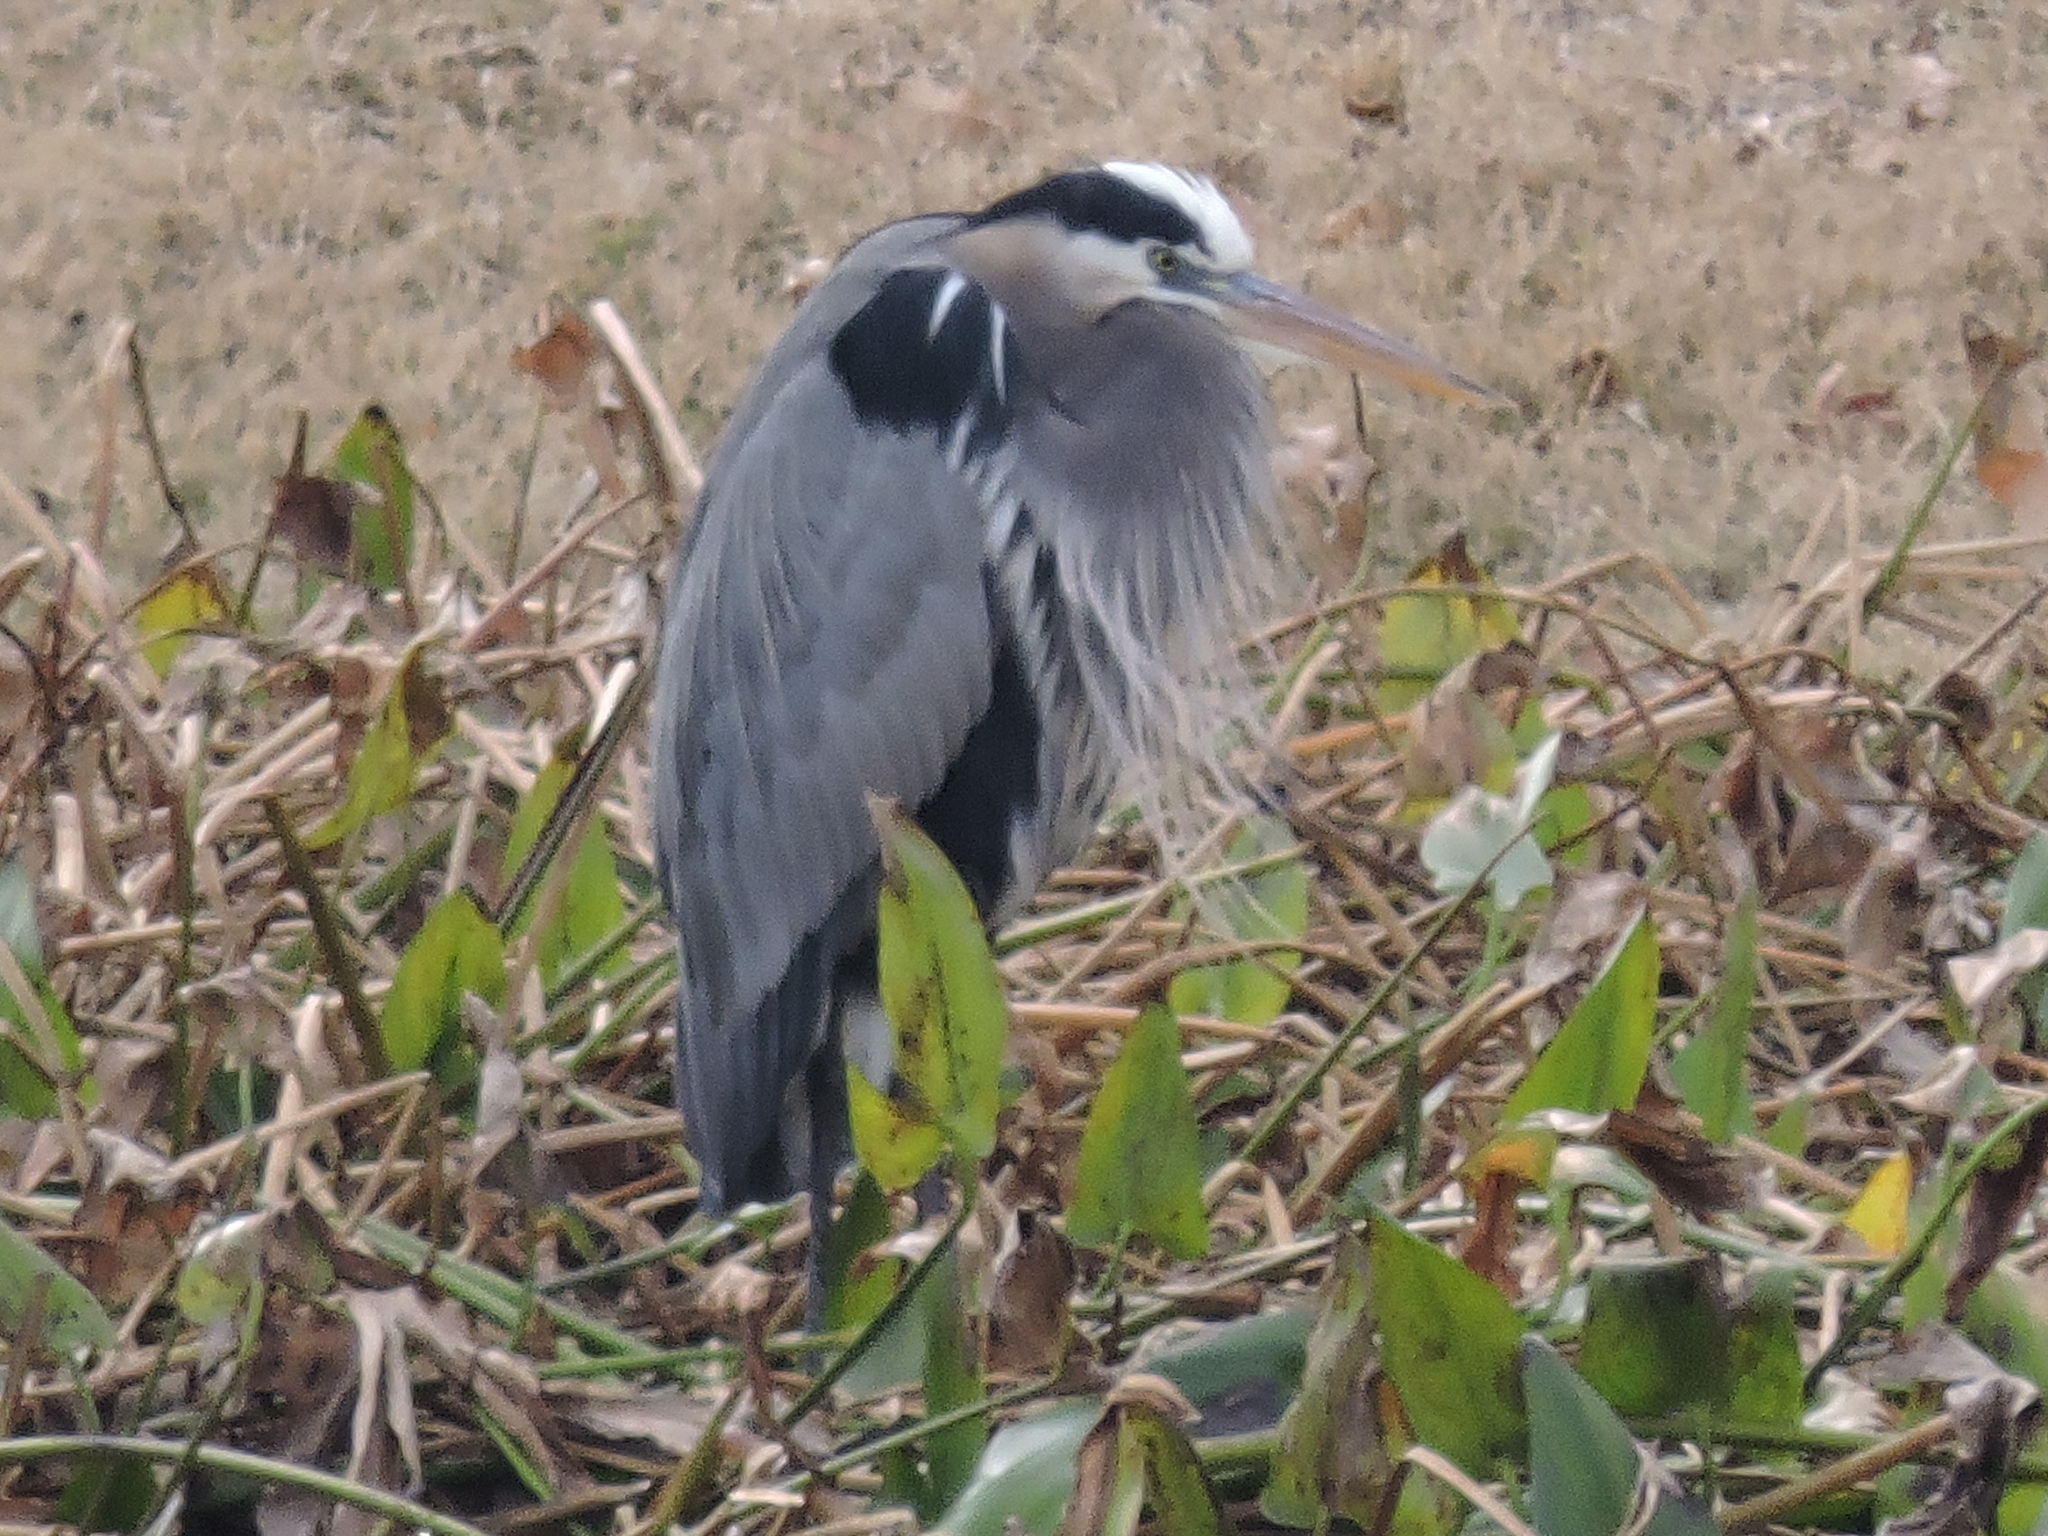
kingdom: Animalia
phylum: Chordata
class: Aves
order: Pelecaniformes
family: Ardeidae
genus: Ardea
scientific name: Ardea herodias
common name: Great blue heron
